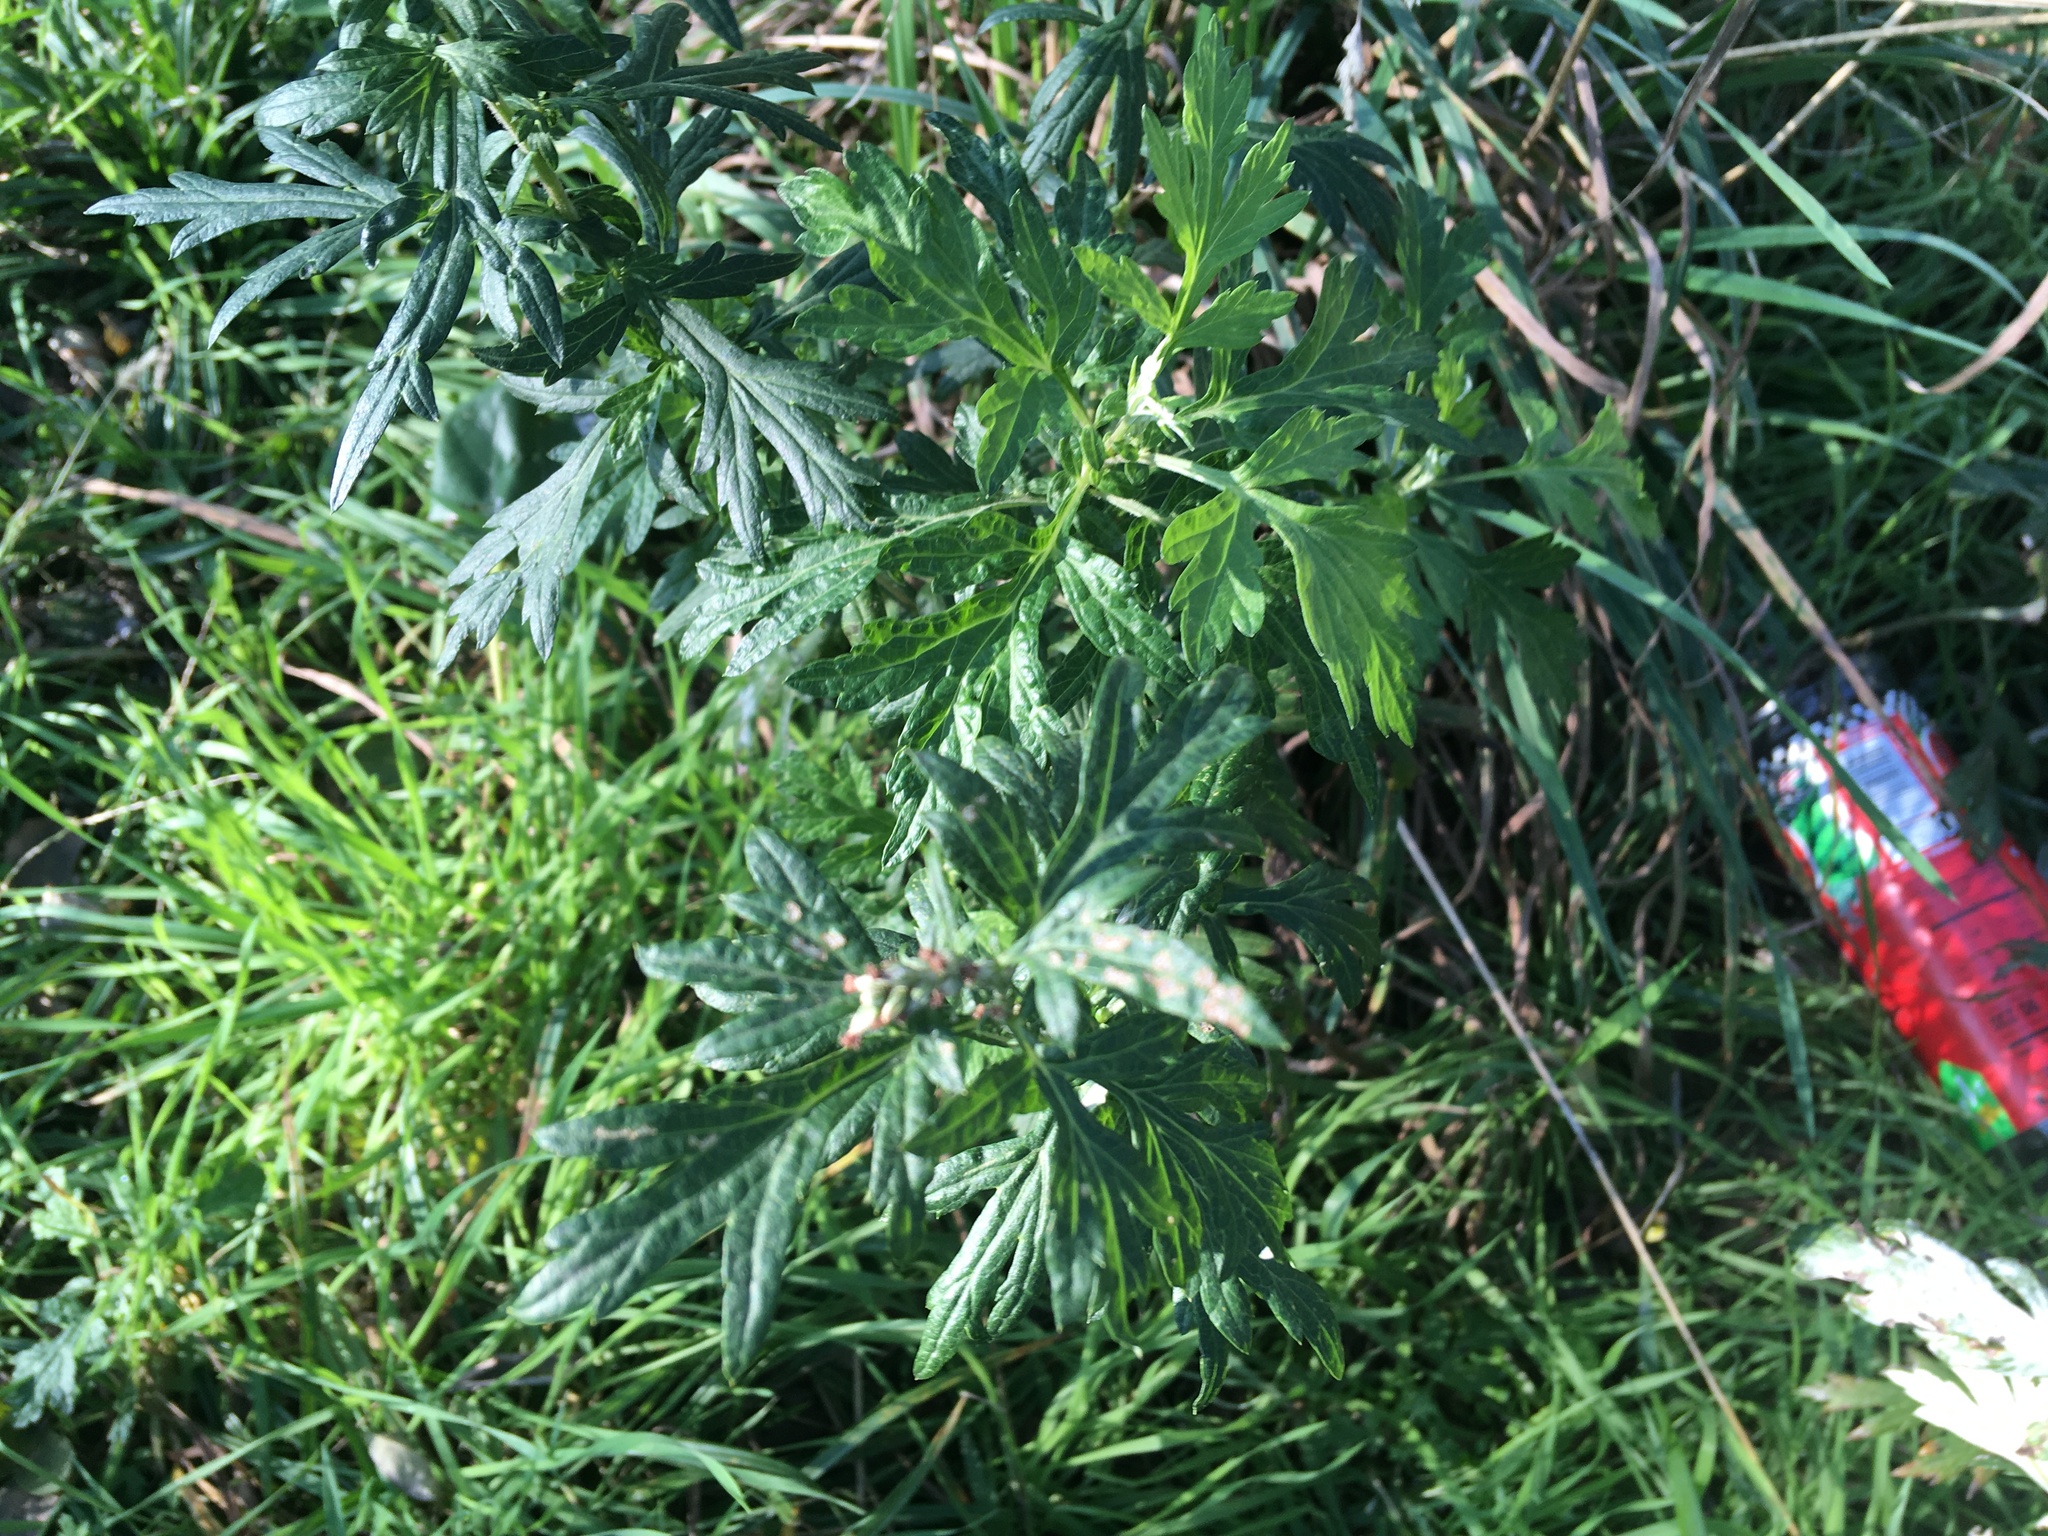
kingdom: Plantae
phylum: Tracheophyta
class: Magnoliopsida
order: Asterales
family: Asteraceae
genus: Artemisia
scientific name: Artemisia vulgaris
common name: Mugwort
